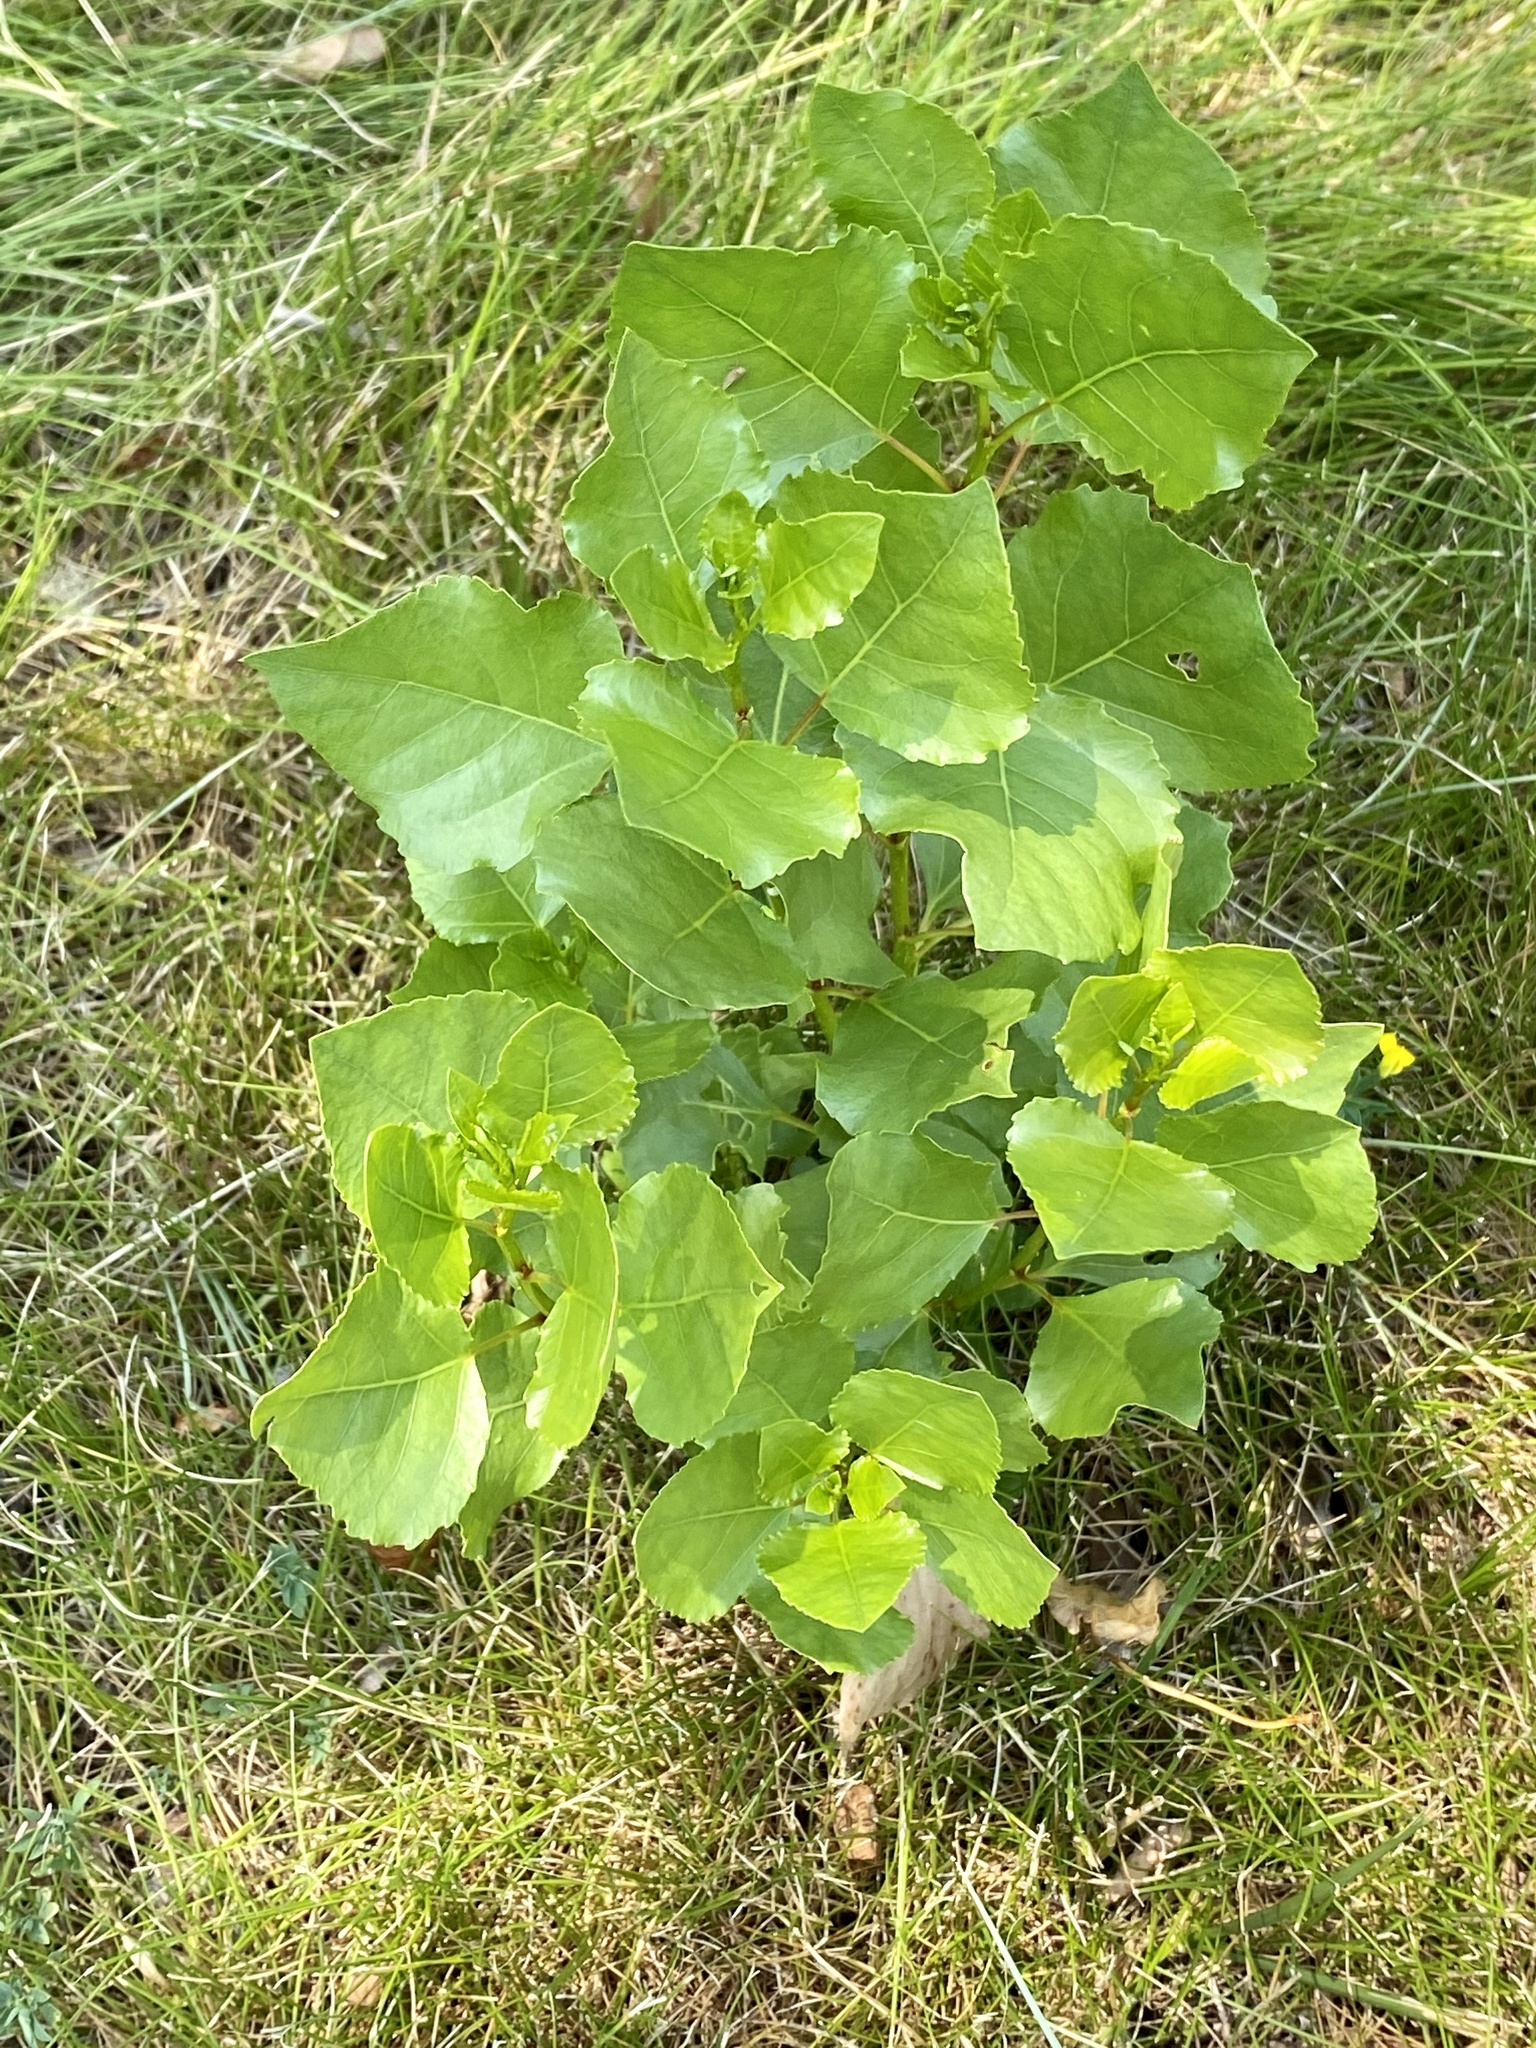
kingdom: Plantae
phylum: Tracheophyta
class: Magnoliopsida
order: Malpighiales
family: Salicaceae
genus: Populus
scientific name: Populus deltoides
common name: Eastern cottonwood
